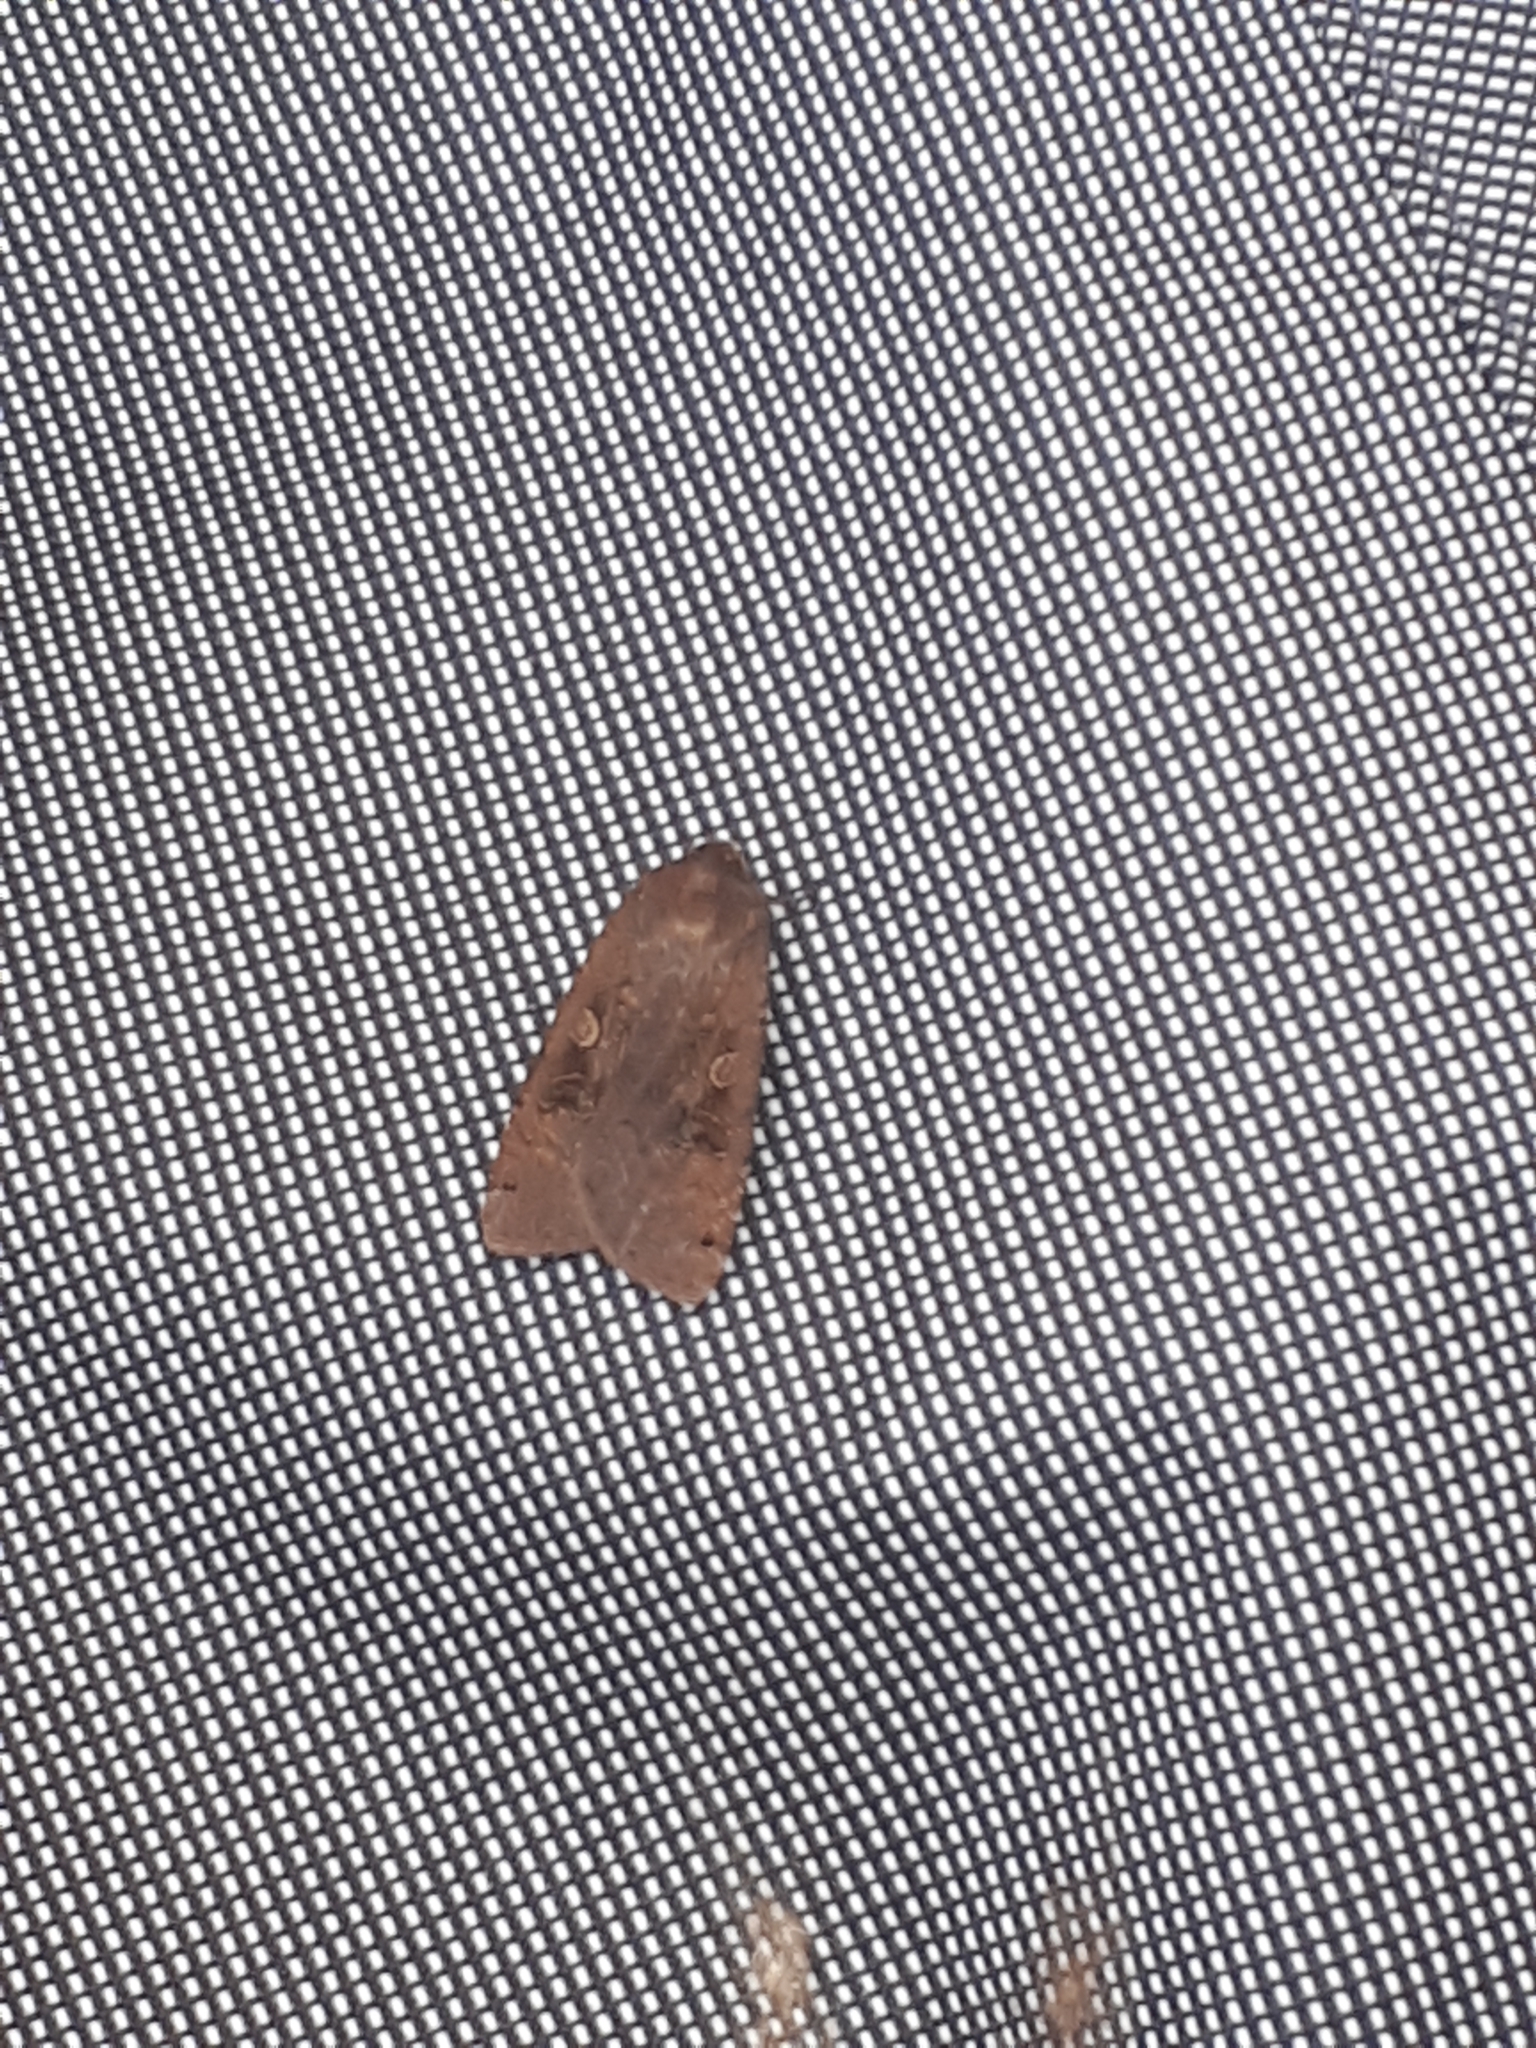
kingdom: Animalia
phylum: Arthropoda
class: Insecta
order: Lepidoptera
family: Noctuidae
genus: Noctua
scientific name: Noctua pronuba
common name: Large yellow underwing
